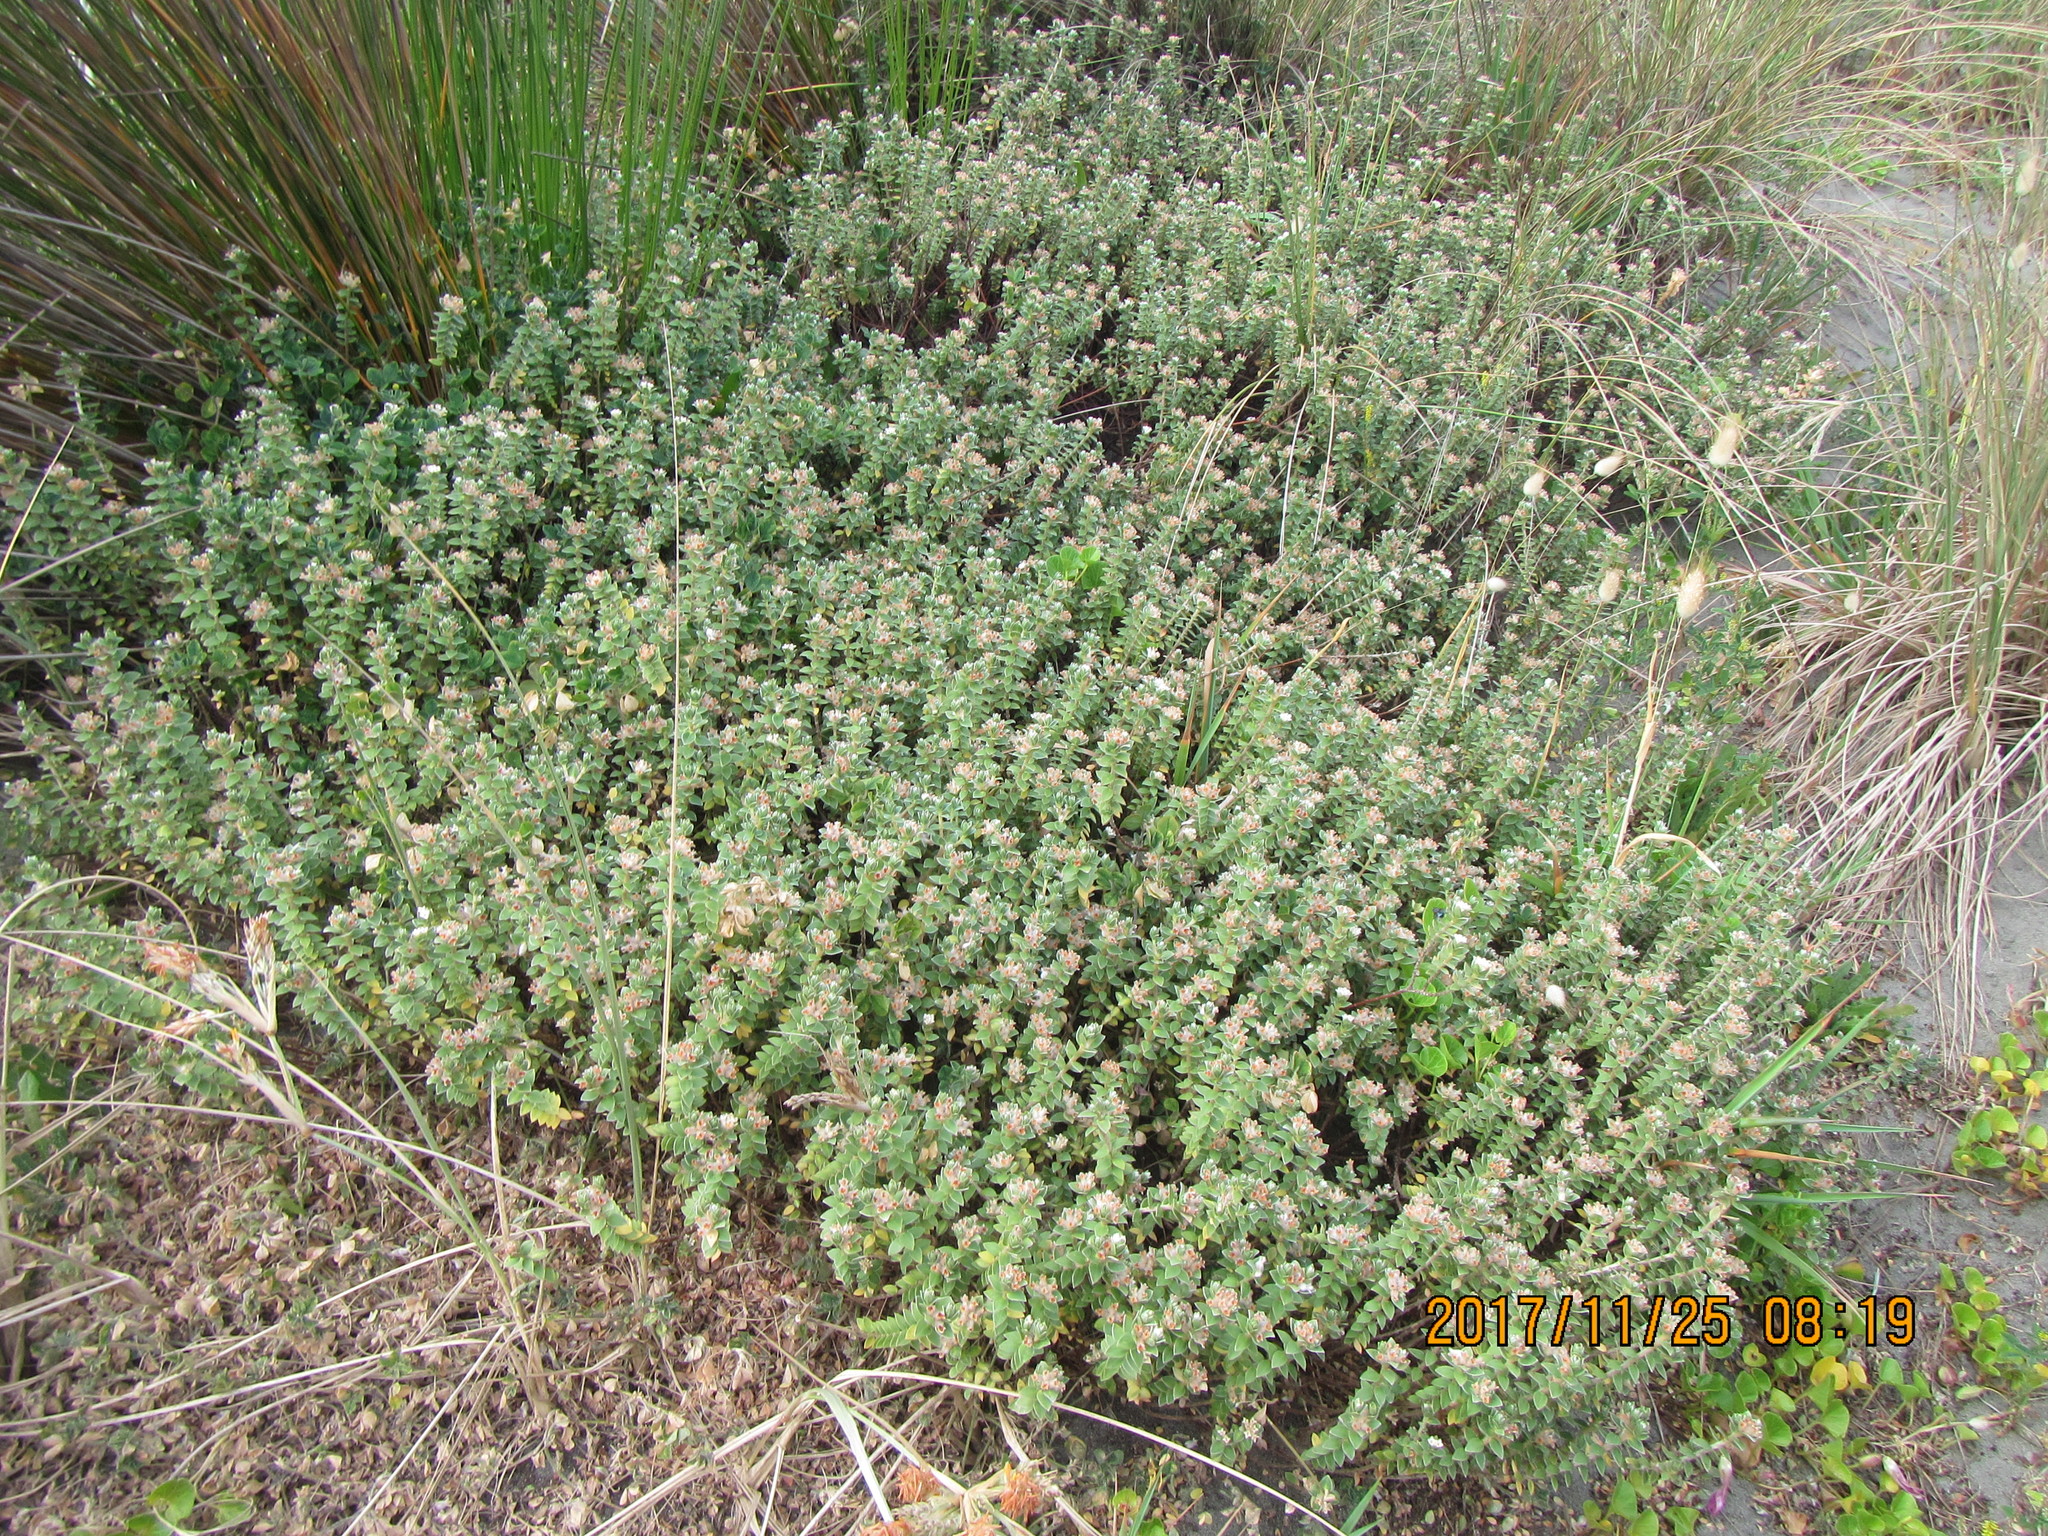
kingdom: Plantae
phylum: Tracheophyta
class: Magnoliopsida
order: Malvales
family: Thymelaeaceae
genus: Pimelea
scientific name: Pimelea villosa
